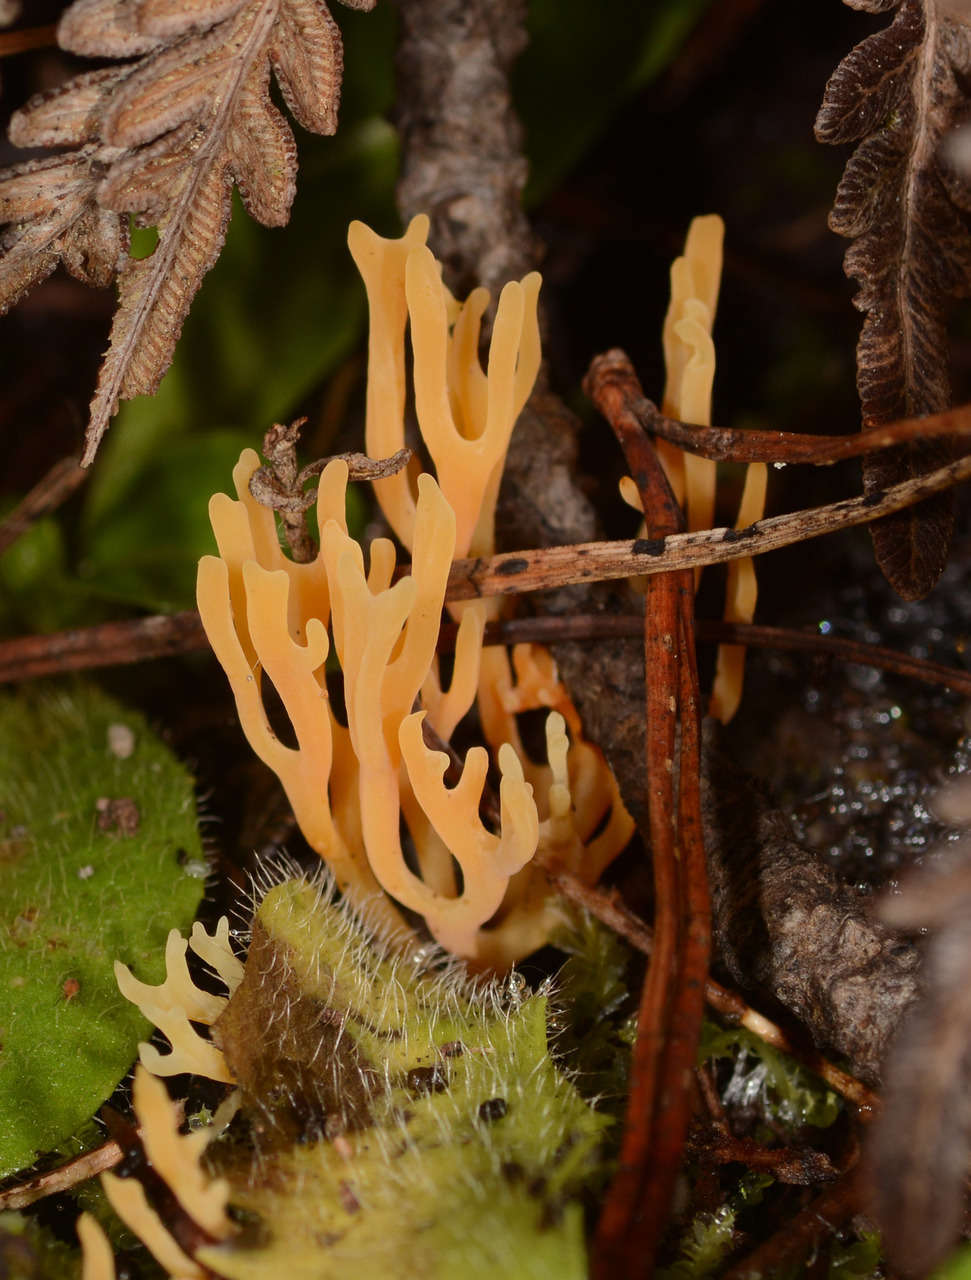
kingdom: Fungi
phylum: Basidiomycota
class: Agaricomycetes
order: Agaricales
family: Clavariaceae
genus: Ramariopsis
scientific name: Ramariopsis crocea
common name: Orange coral
